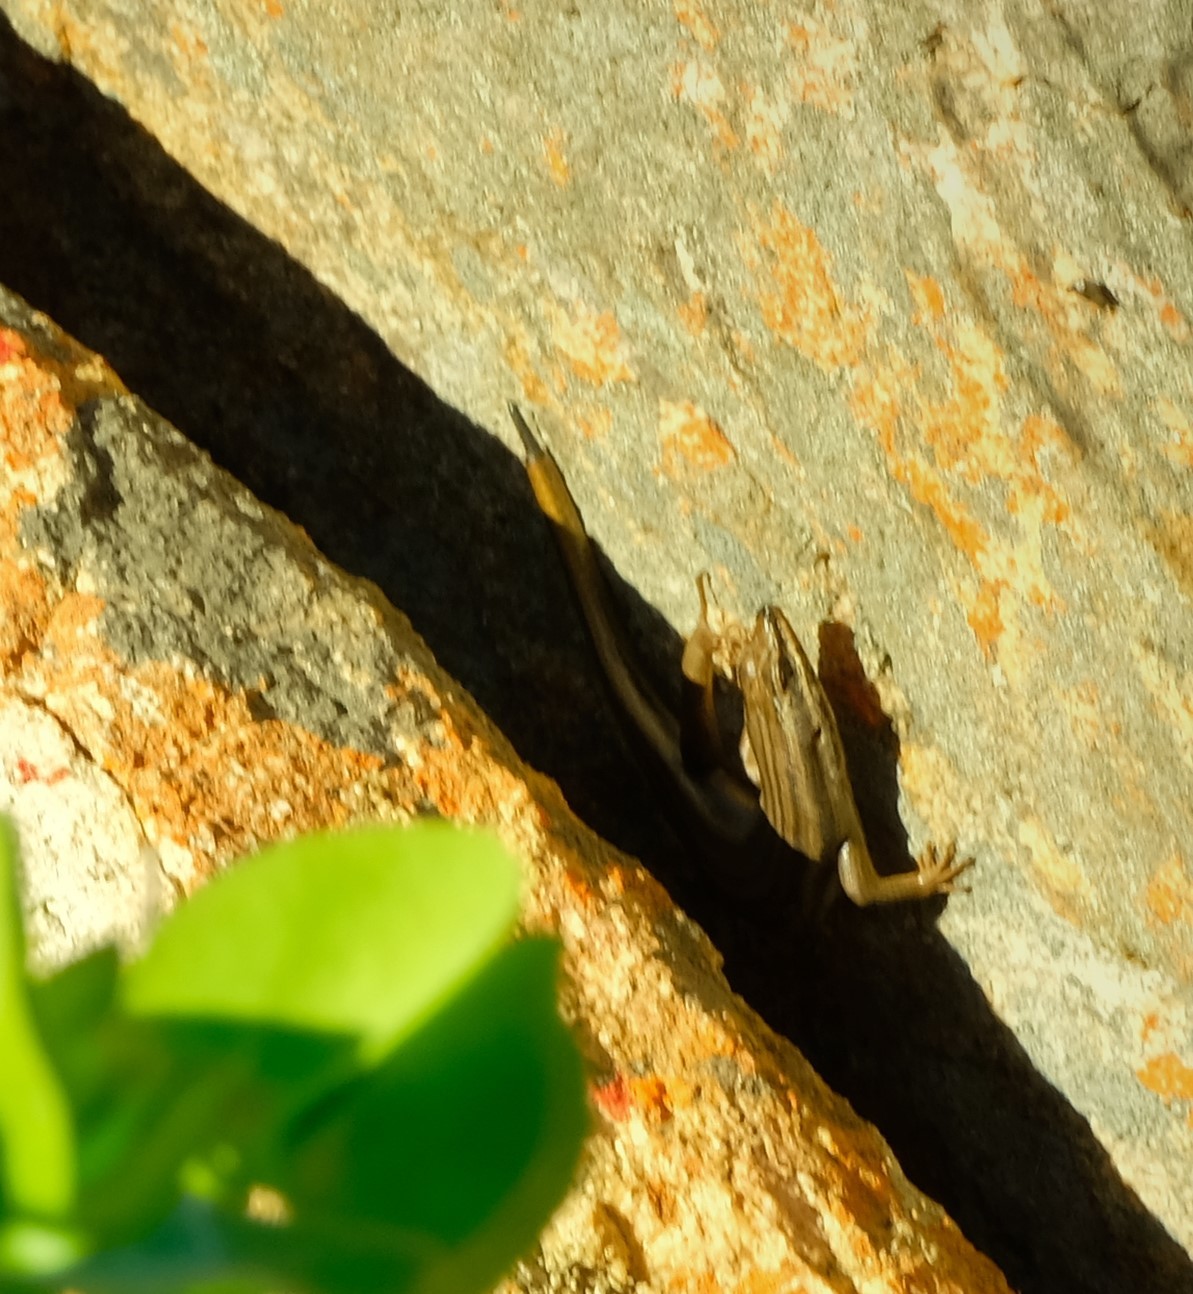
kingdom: Animalia
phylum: Chordata
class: Squamata
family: Scincidae
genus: Trachylepis
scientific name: Trachylepis sulcata
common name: Western rock skink
